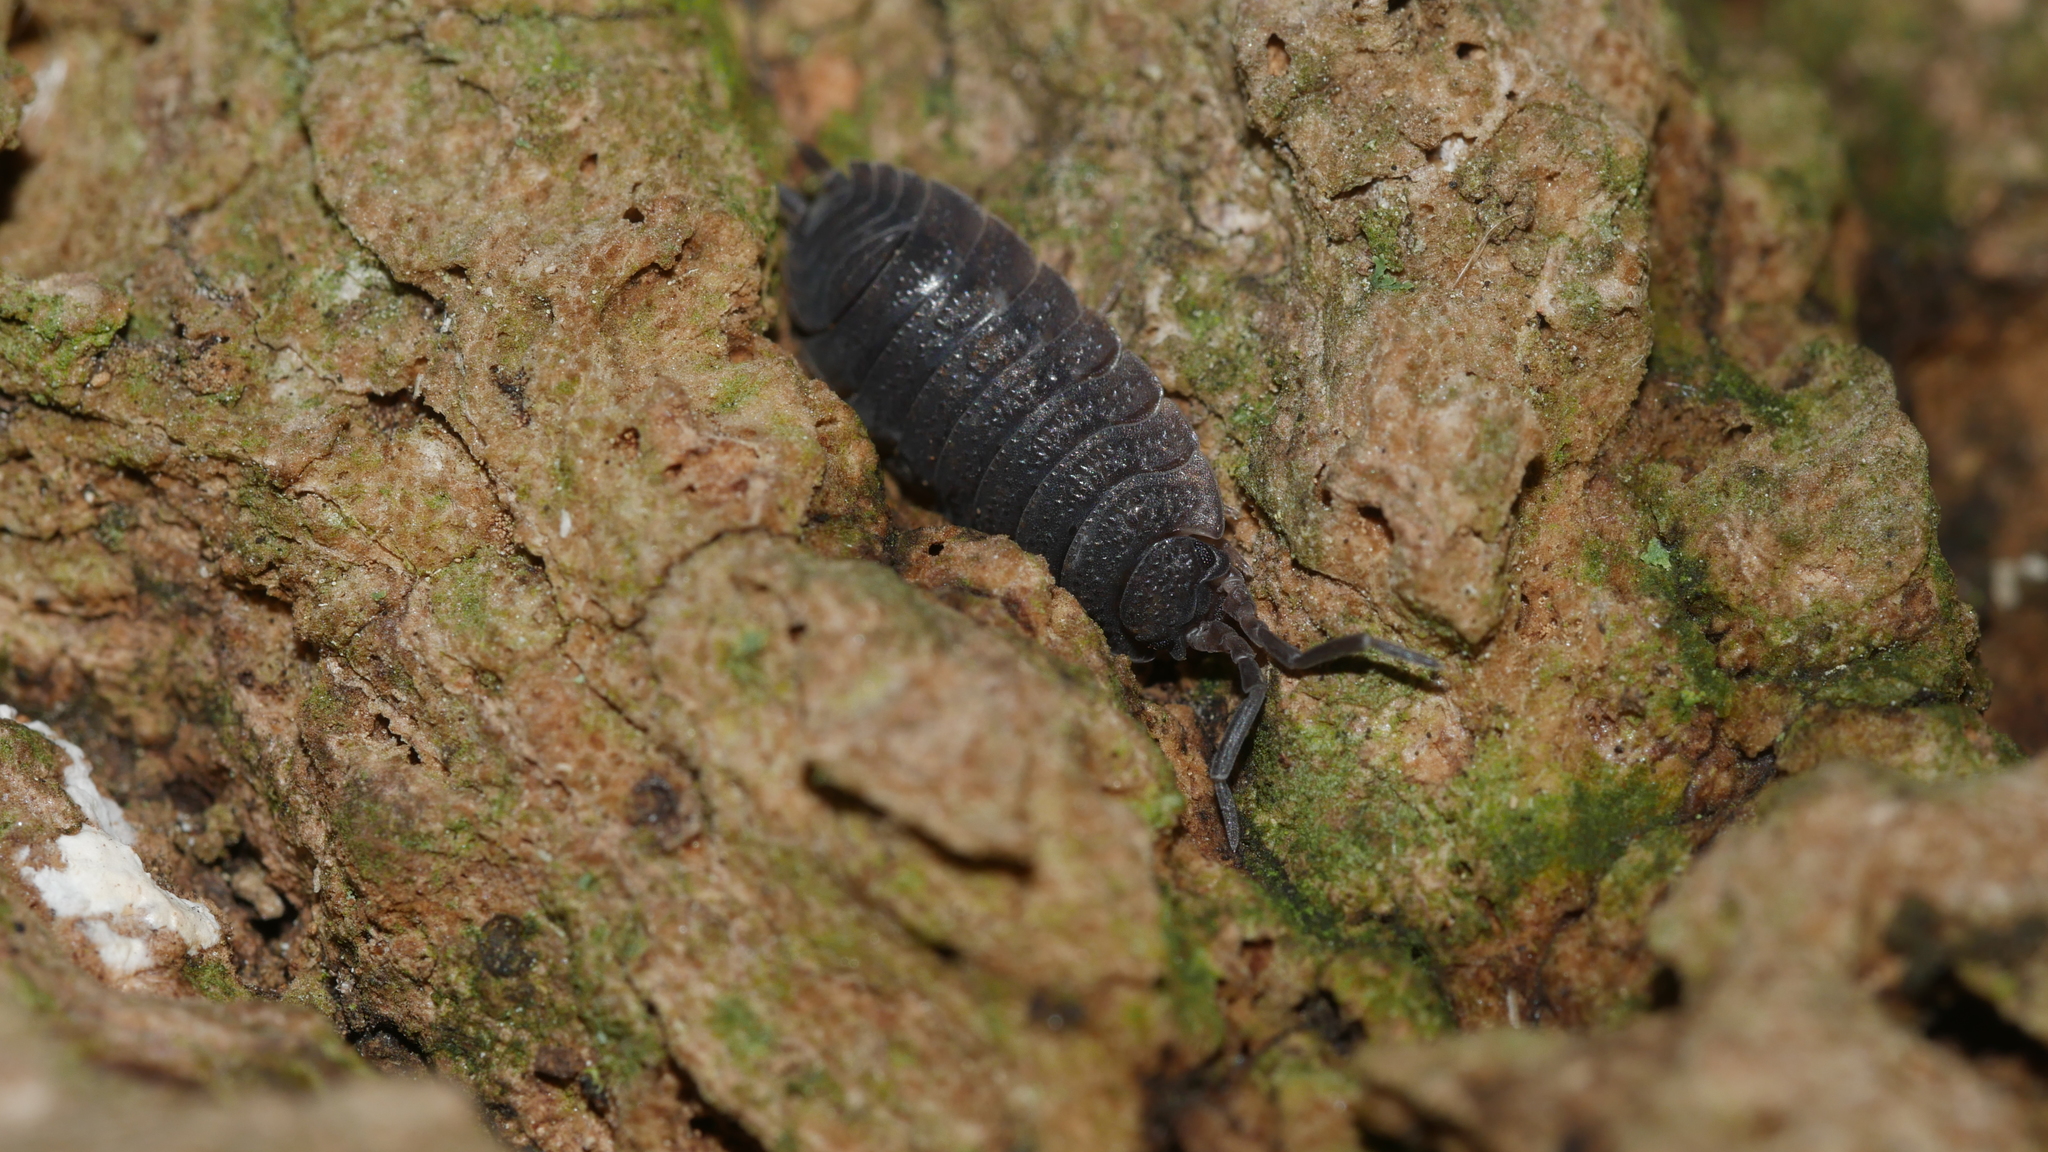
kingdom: Animalia
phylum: Arthropoda
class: Malacostraca
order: Isopoda
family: Porcellionidae
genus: Porcellio
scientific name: Porcellio scaber
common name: Common rough woodlouse
